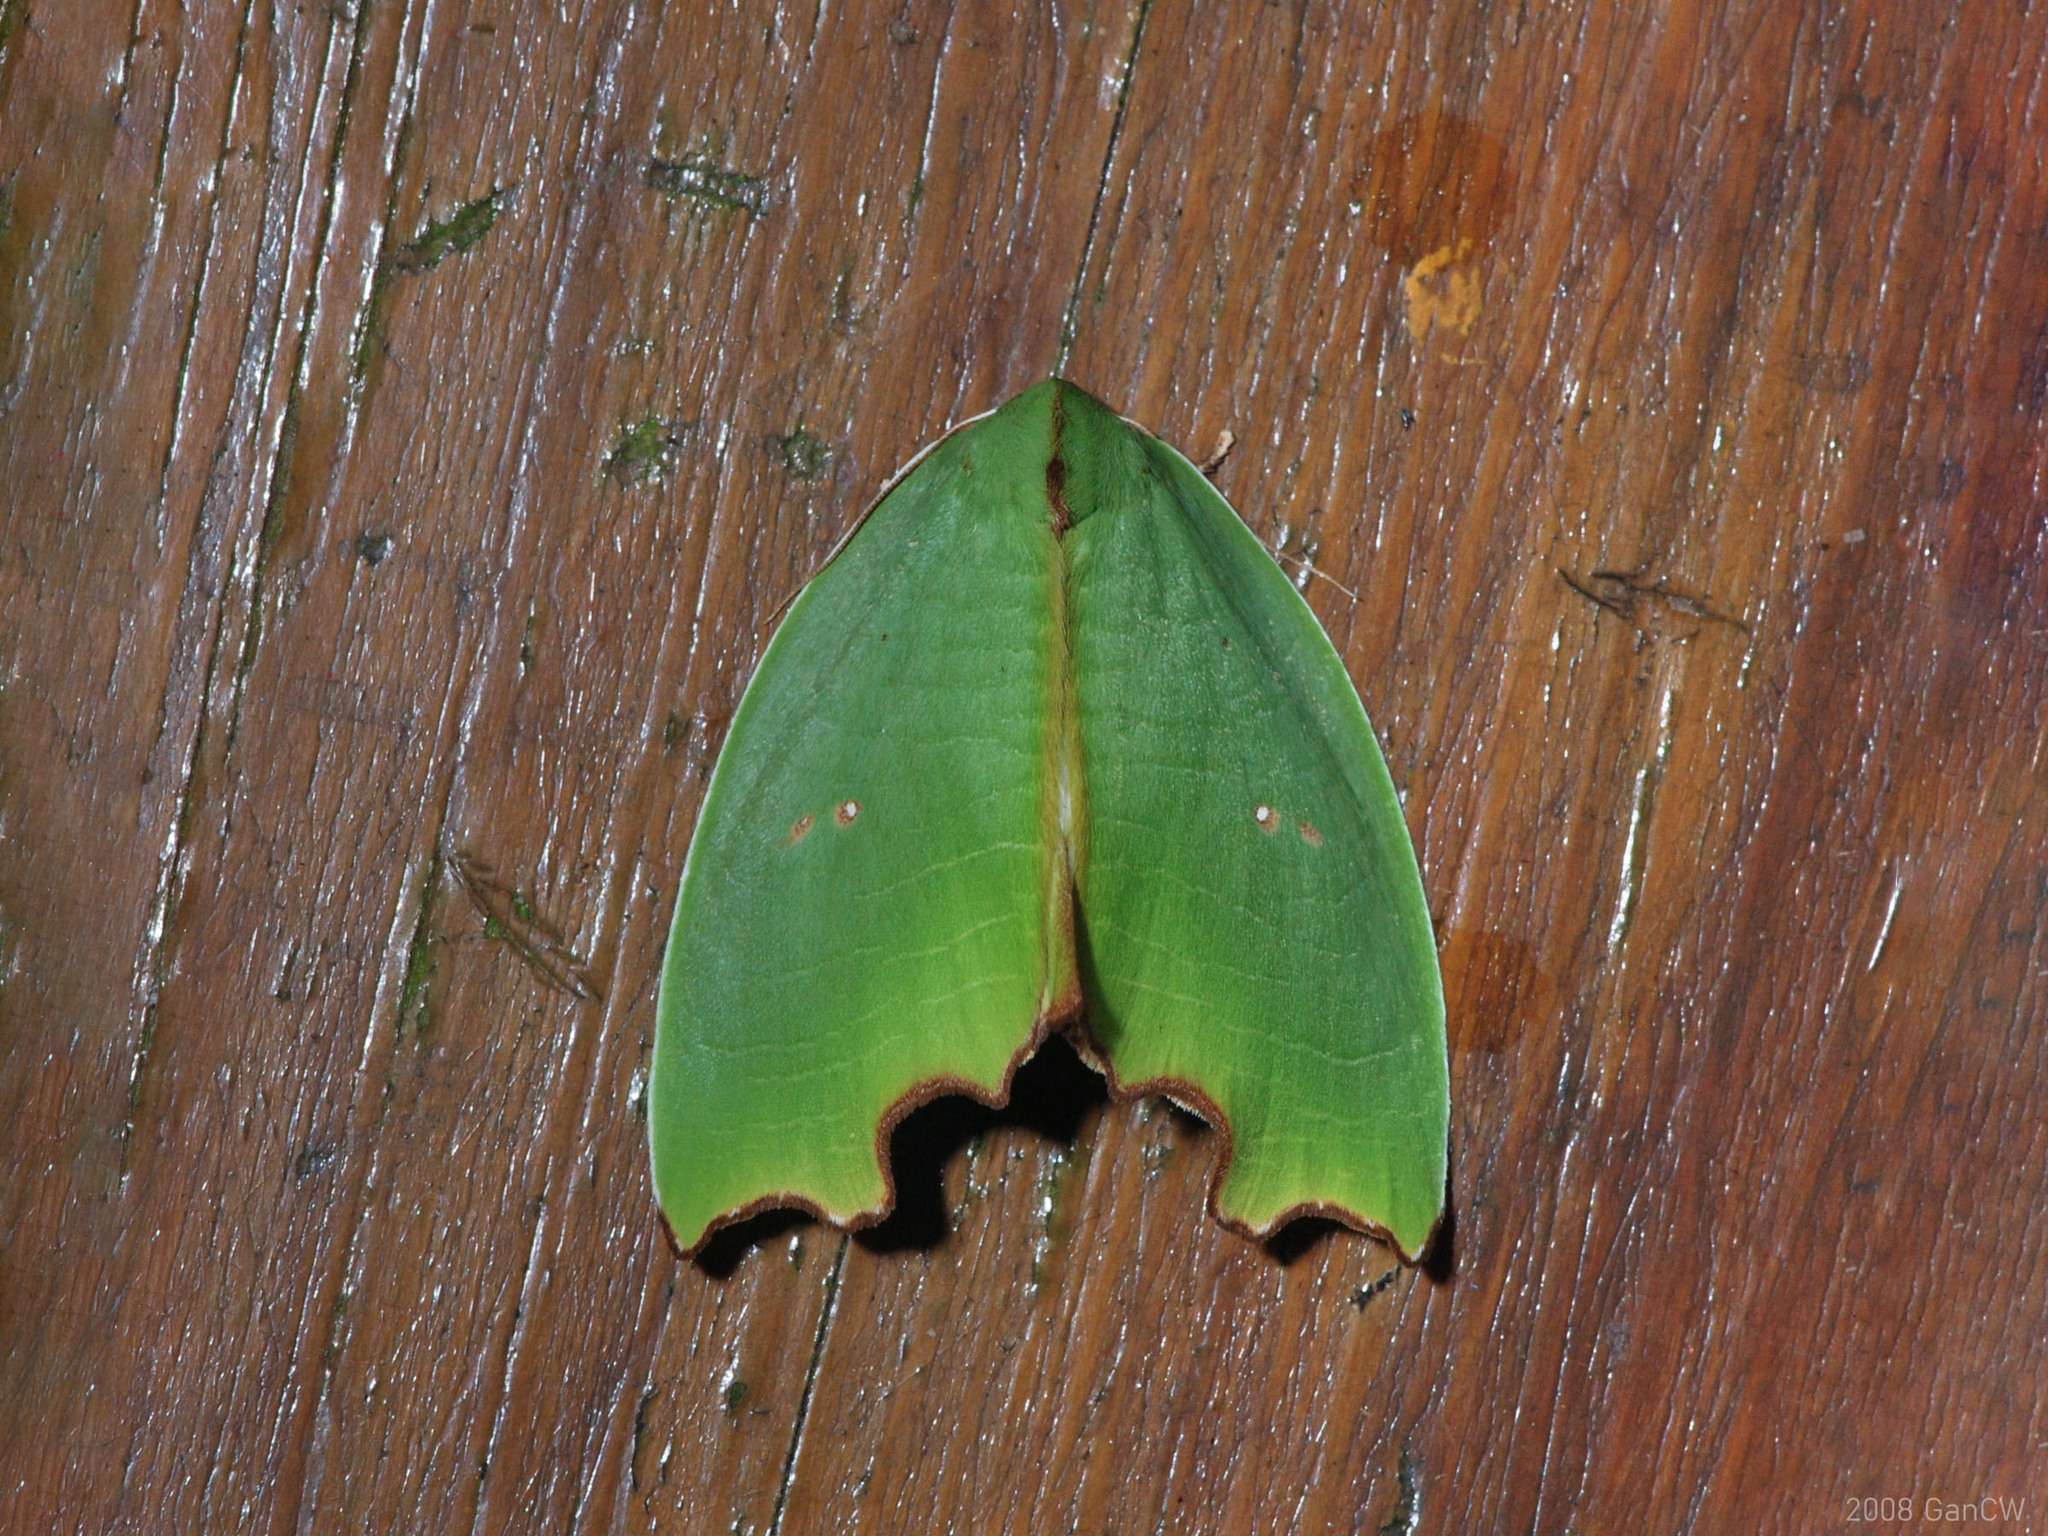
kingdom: Animalia
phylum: Arthropoda
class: Insecta
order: Lepidoptera
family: Noctuidae
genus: Plagerepne
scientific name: Plagerepne torquata
